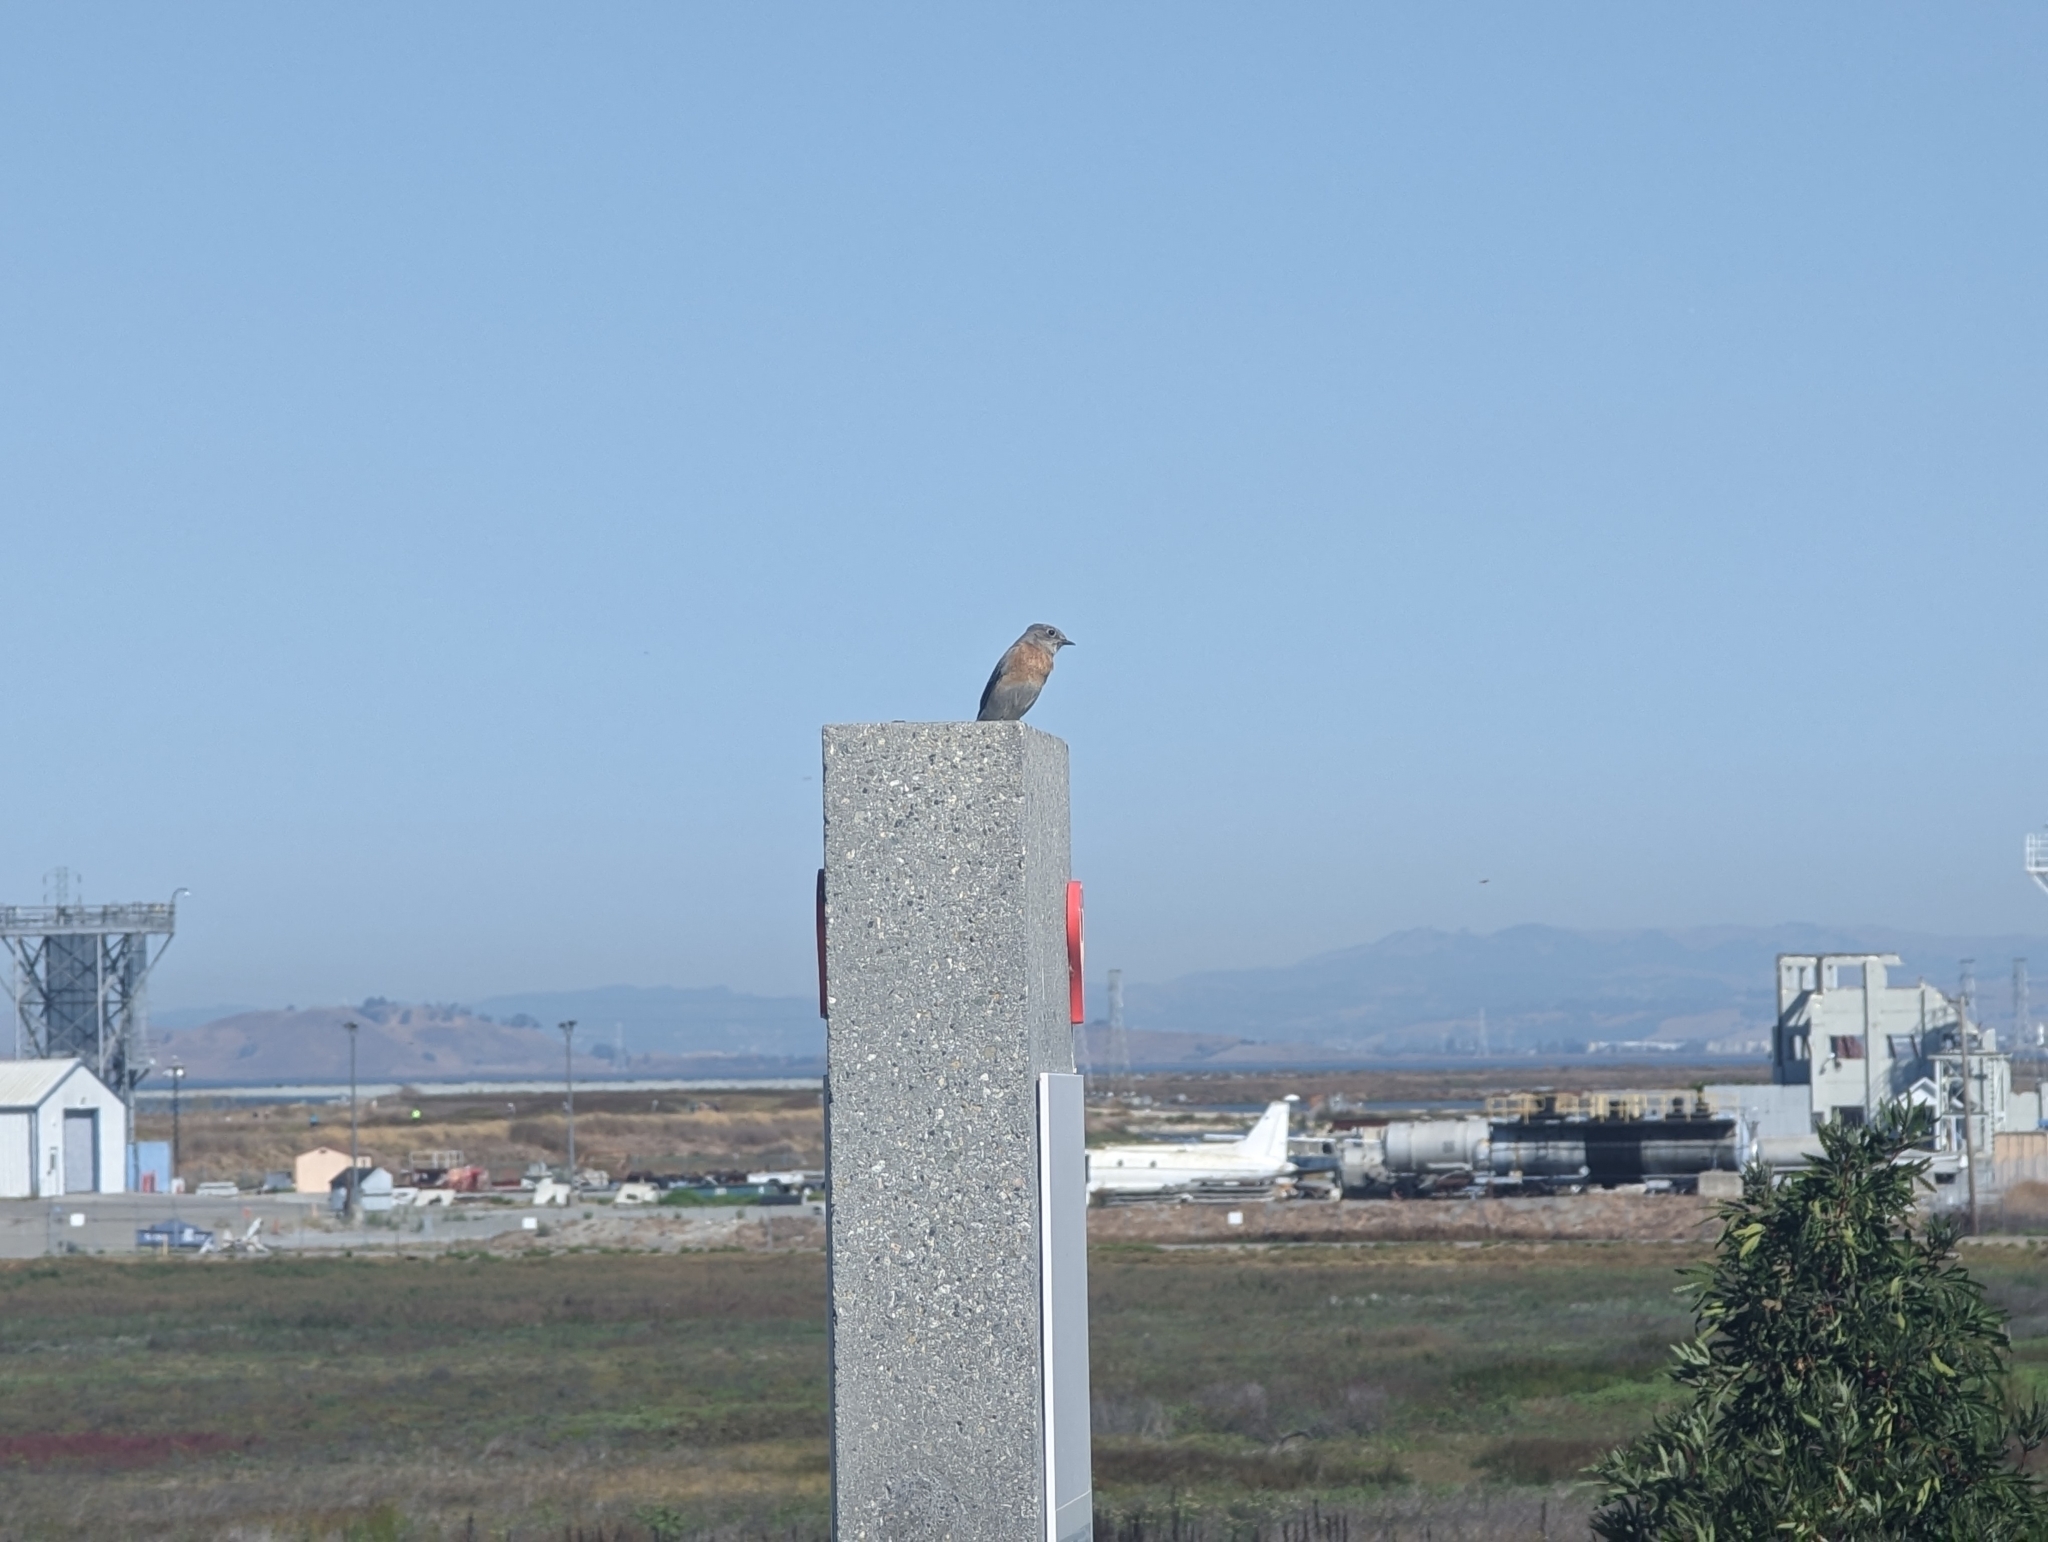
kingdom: Animalia
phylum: Chordata
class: Aves
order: Passeriformes
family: Turdidae
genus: Sialia
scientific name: Sialia mexicana
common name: Western bluebird
